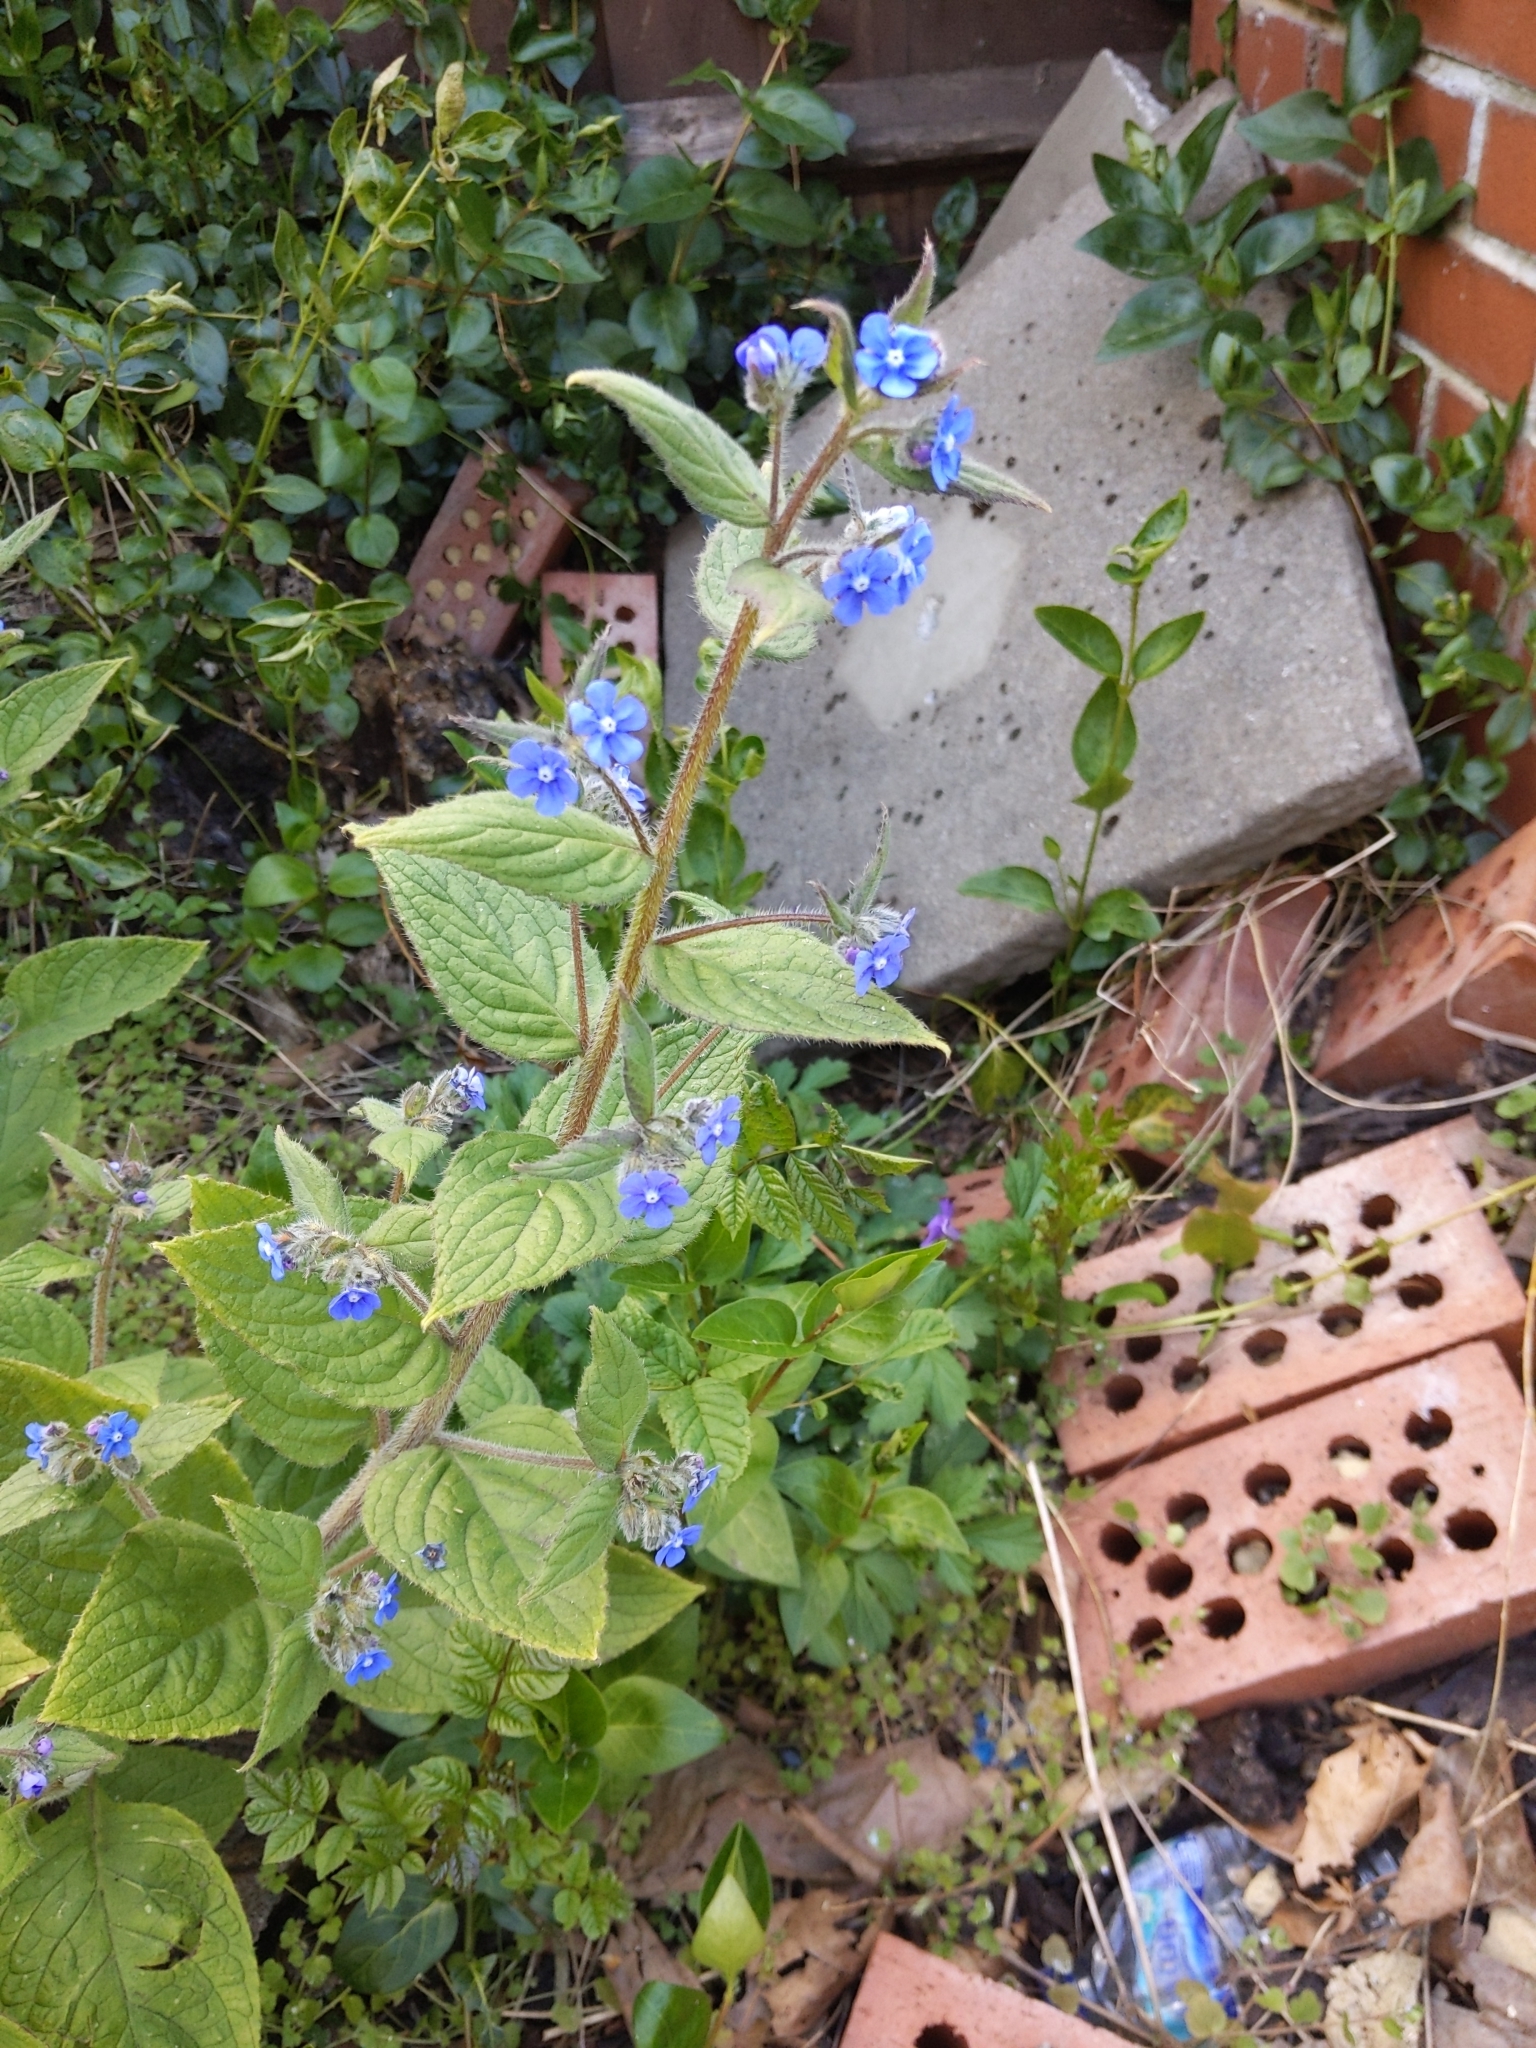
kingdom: Plantae
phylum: Tracheophyta
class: Magnoliopsida
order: Boraginales
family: Boraginaceae
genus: Pentaglottis
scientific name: Pentaglottis sempervirens
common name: Green alkanet
